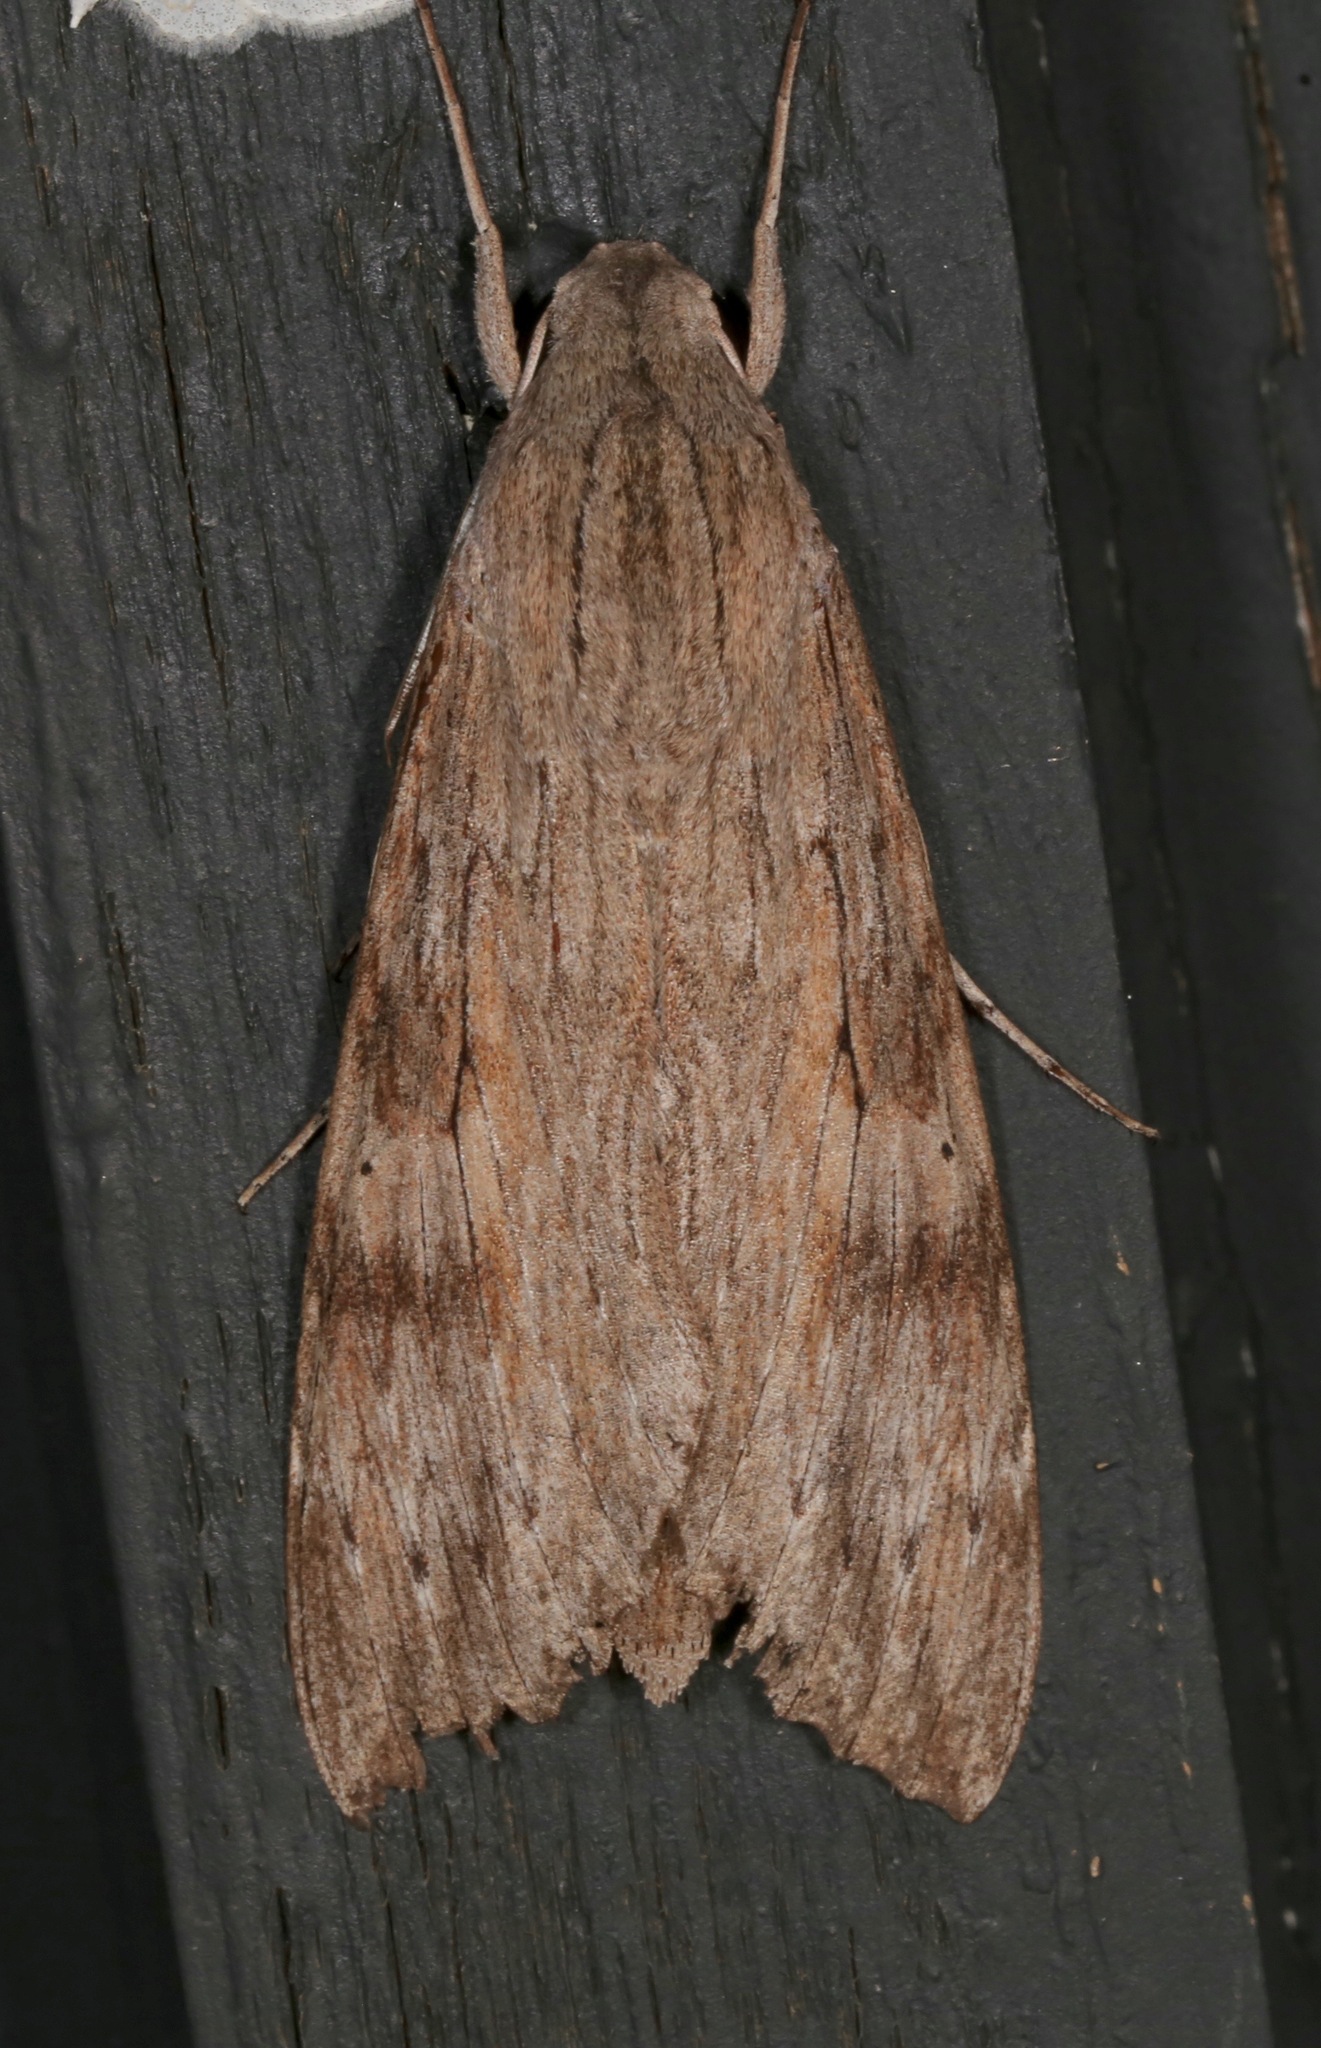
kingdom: Animalia
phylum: Arthropoda
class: Insecta
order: Lepidoptera
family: Sphingidae
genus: Erinnyis
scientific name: Erinnyis ello
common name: Ello sphinx
